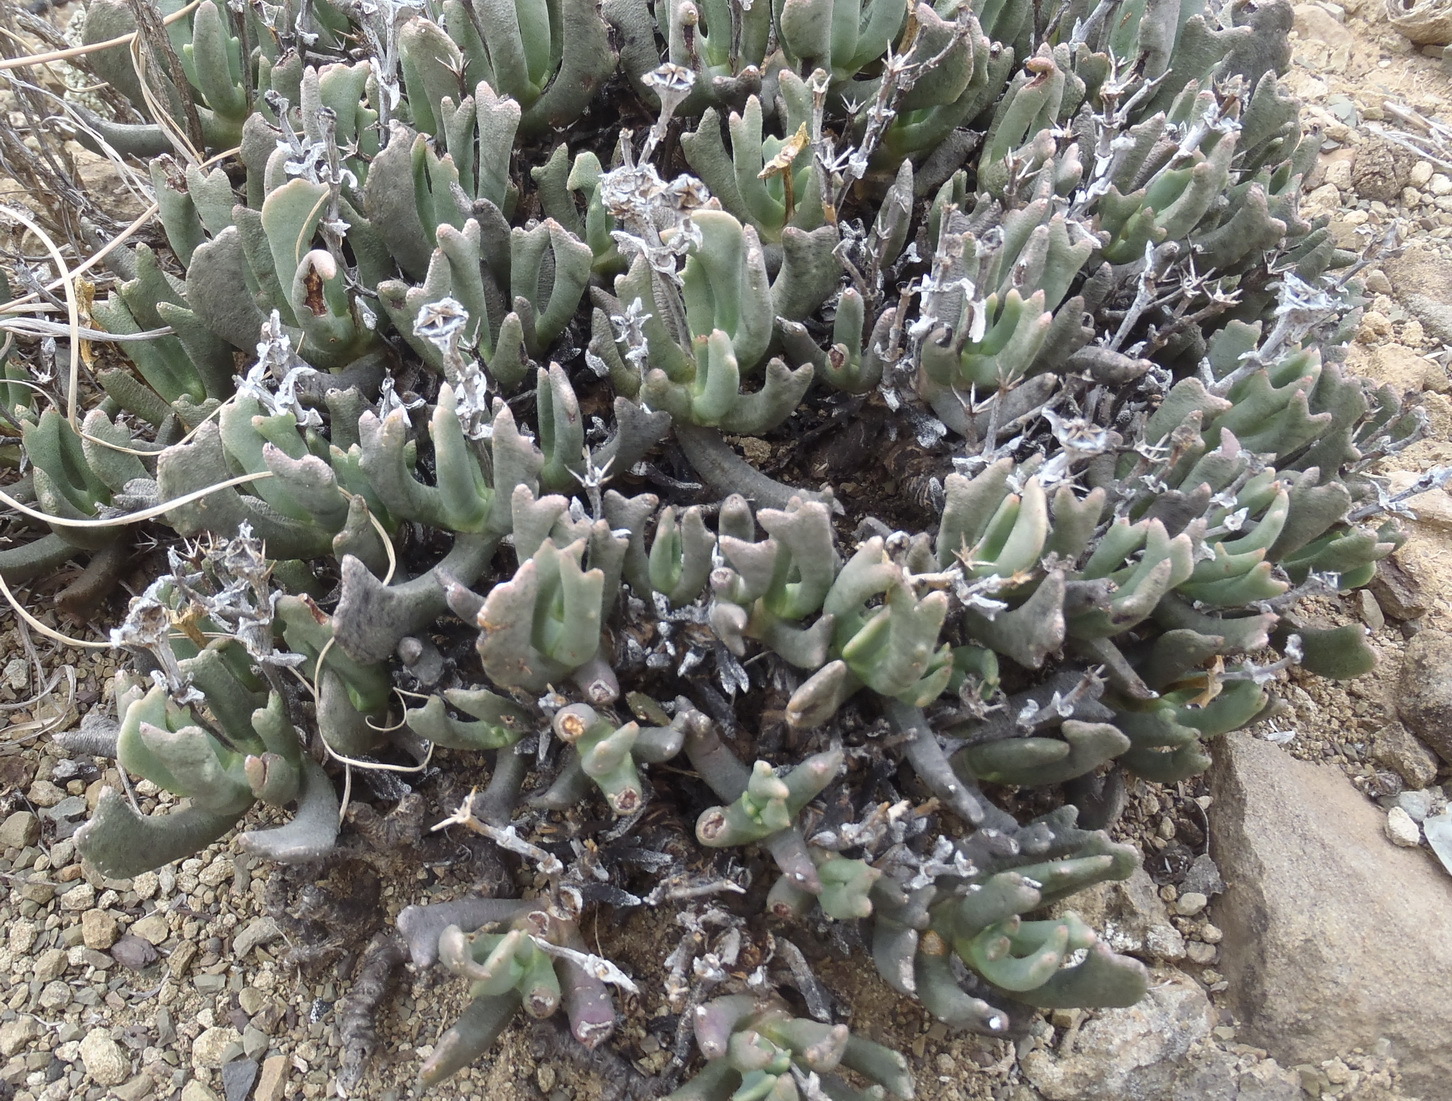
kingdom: Plantae
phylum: Tracheophyta
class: Magnoliopsida
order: Caryophyllales
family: Aizoaceae
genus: Dracophilus
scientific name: Dracophilus Rhombophyllum dolabriforme
